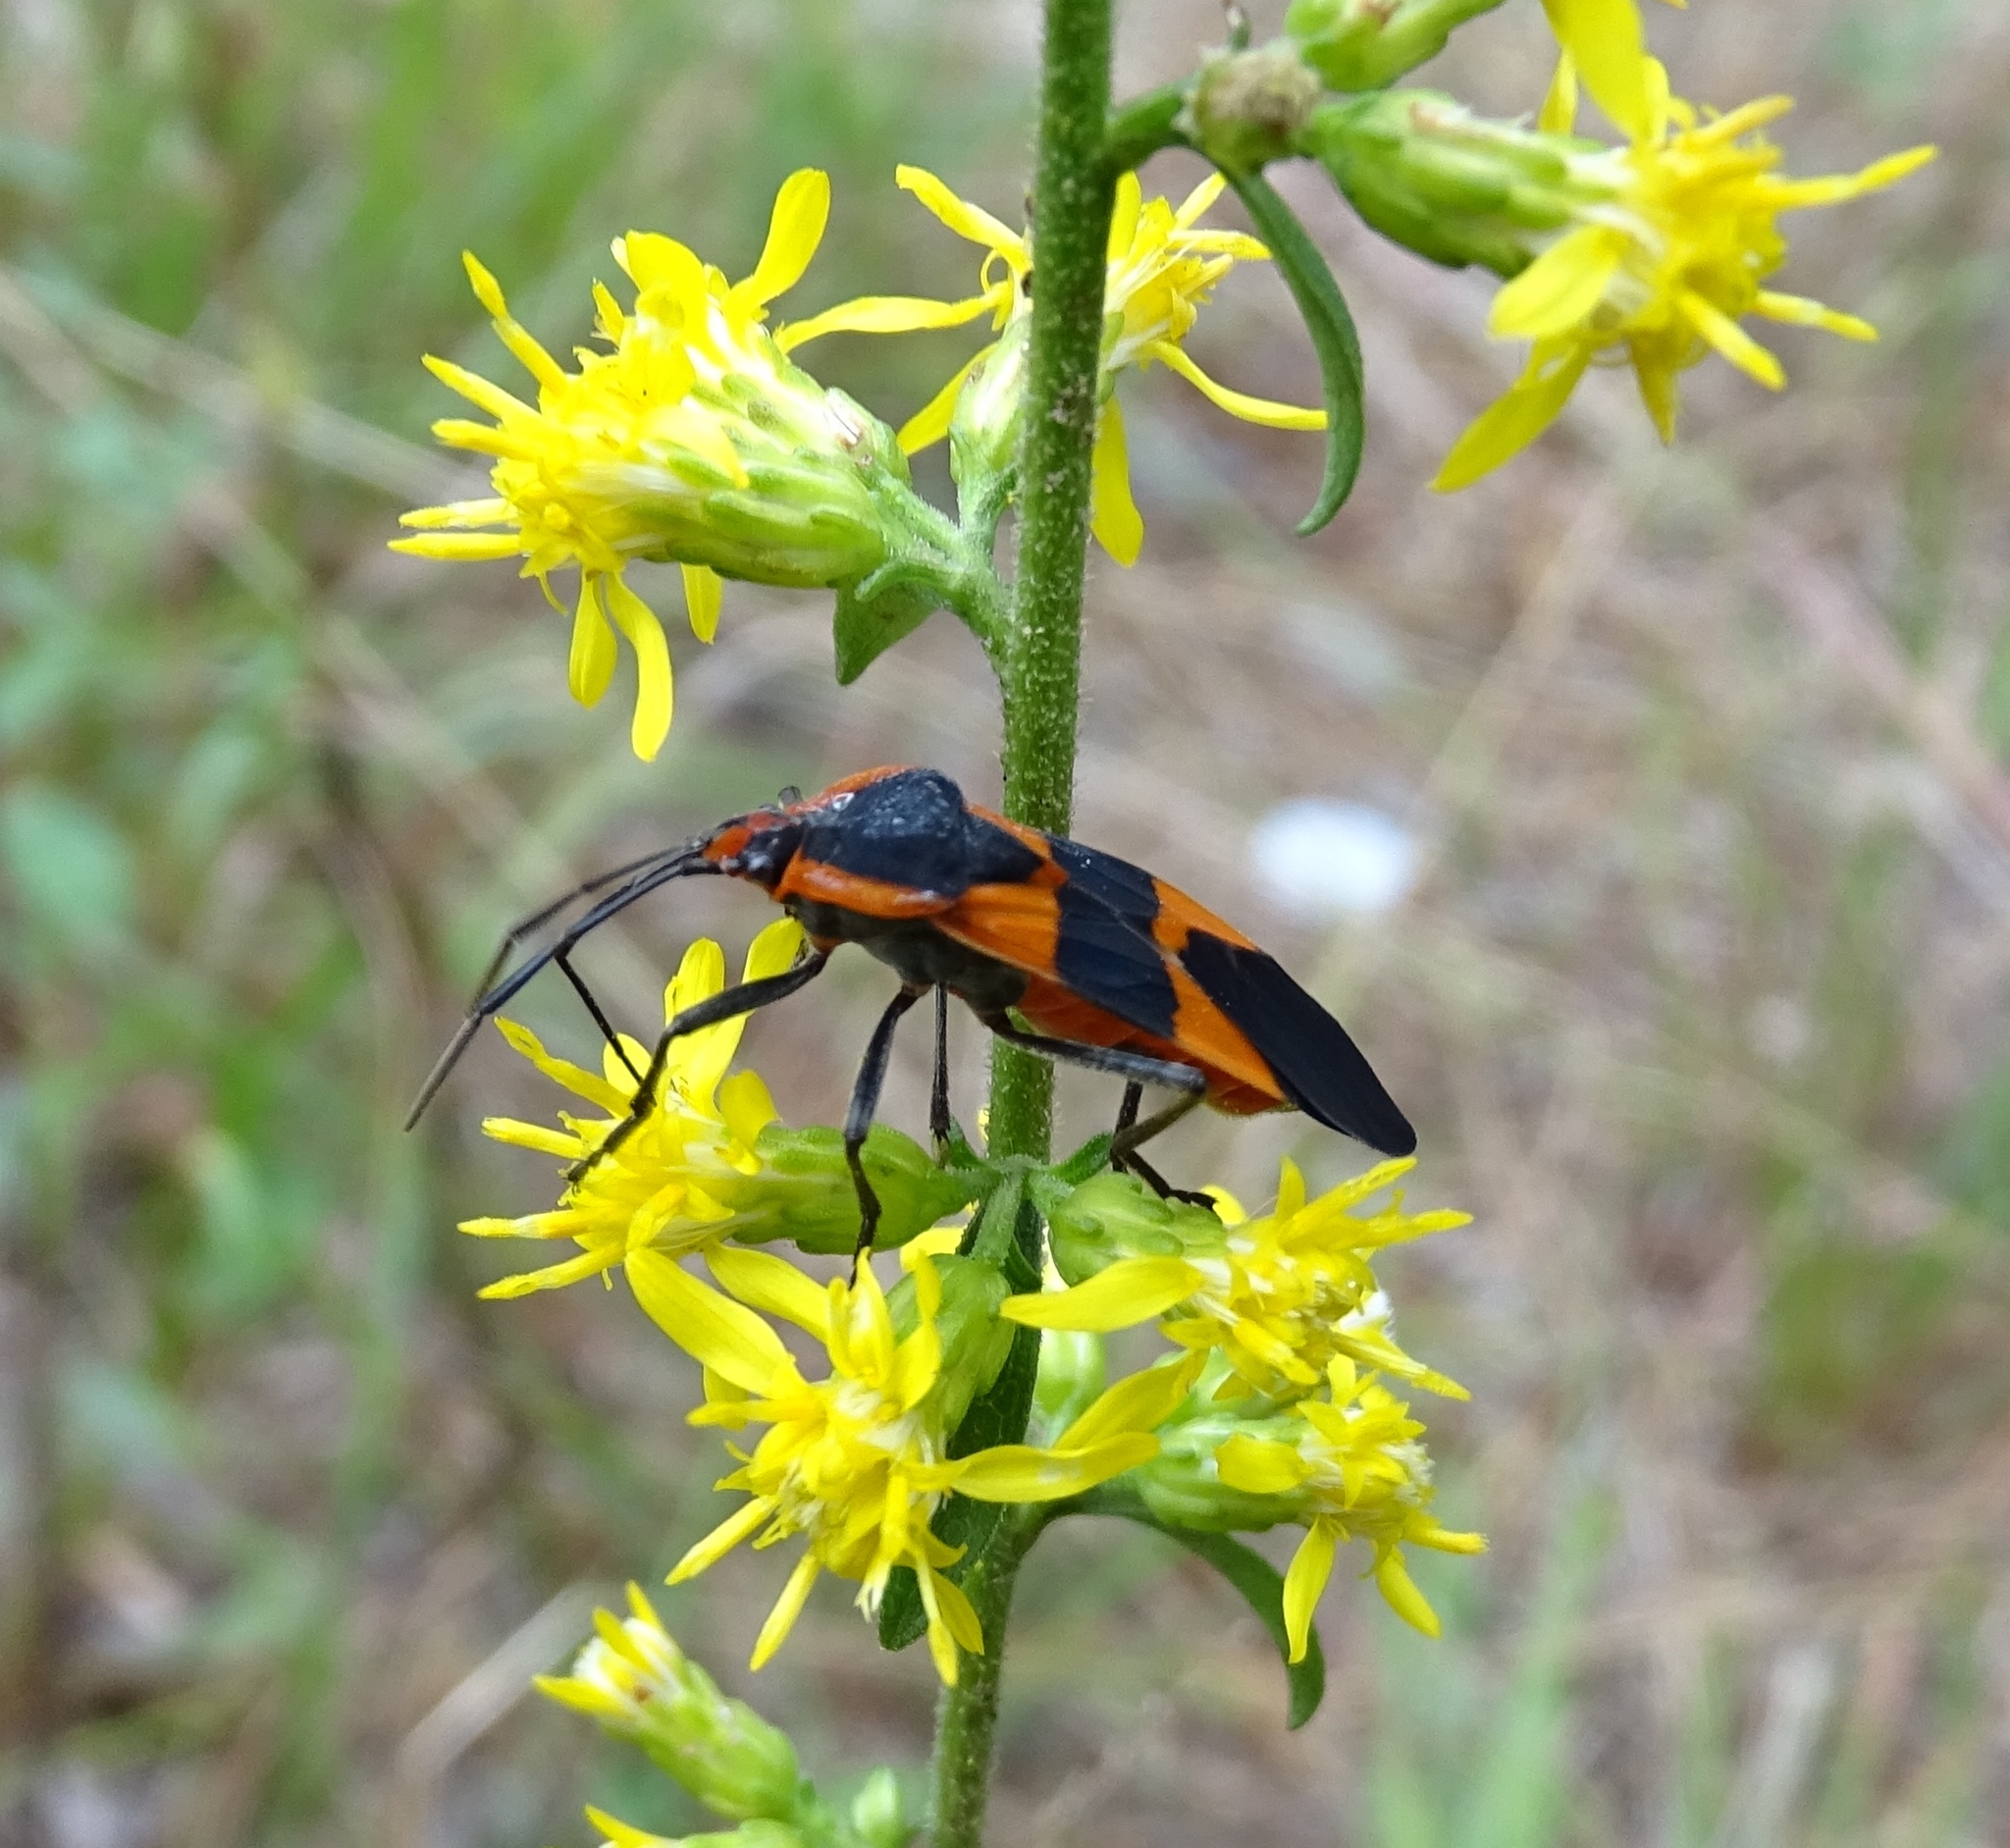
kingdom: Animalia
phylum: Arthropoda
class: Insecta
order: Hemiptera
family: Lygaeidae
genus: Oncopeltus
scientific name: Oncopeltus fasciatus
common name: Large milkweed bug
